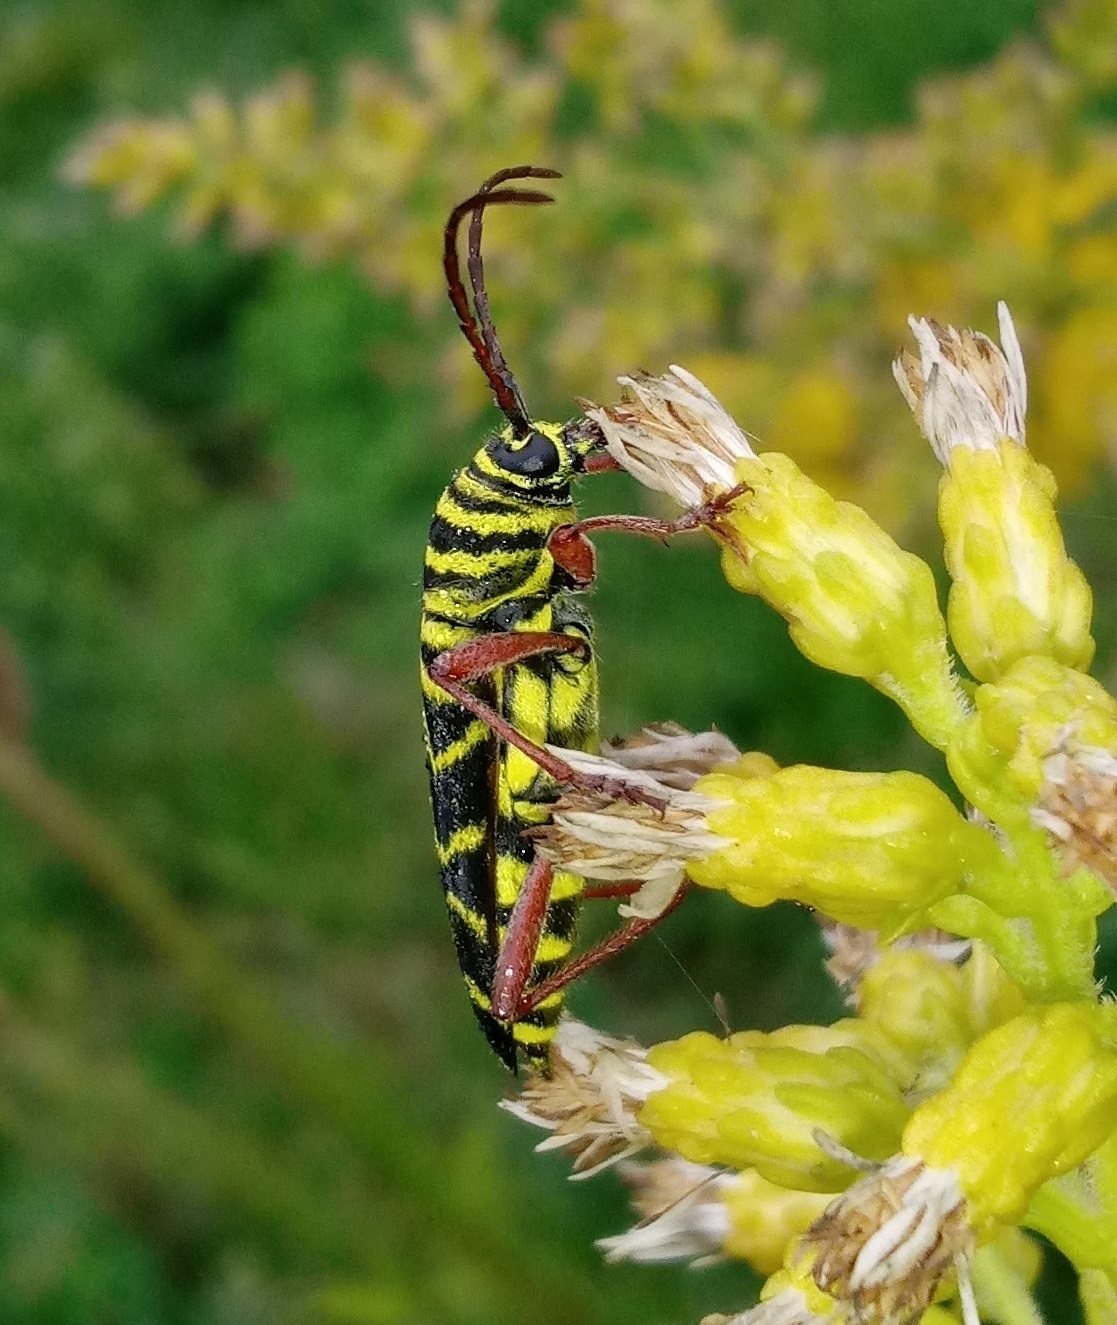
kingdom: Animalia
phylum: Arthropoda
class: Insecta
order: Coleoptera
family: Cerambycidae
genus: Megacyllene
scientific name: Megacyllene robiniae
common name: Locust borer
